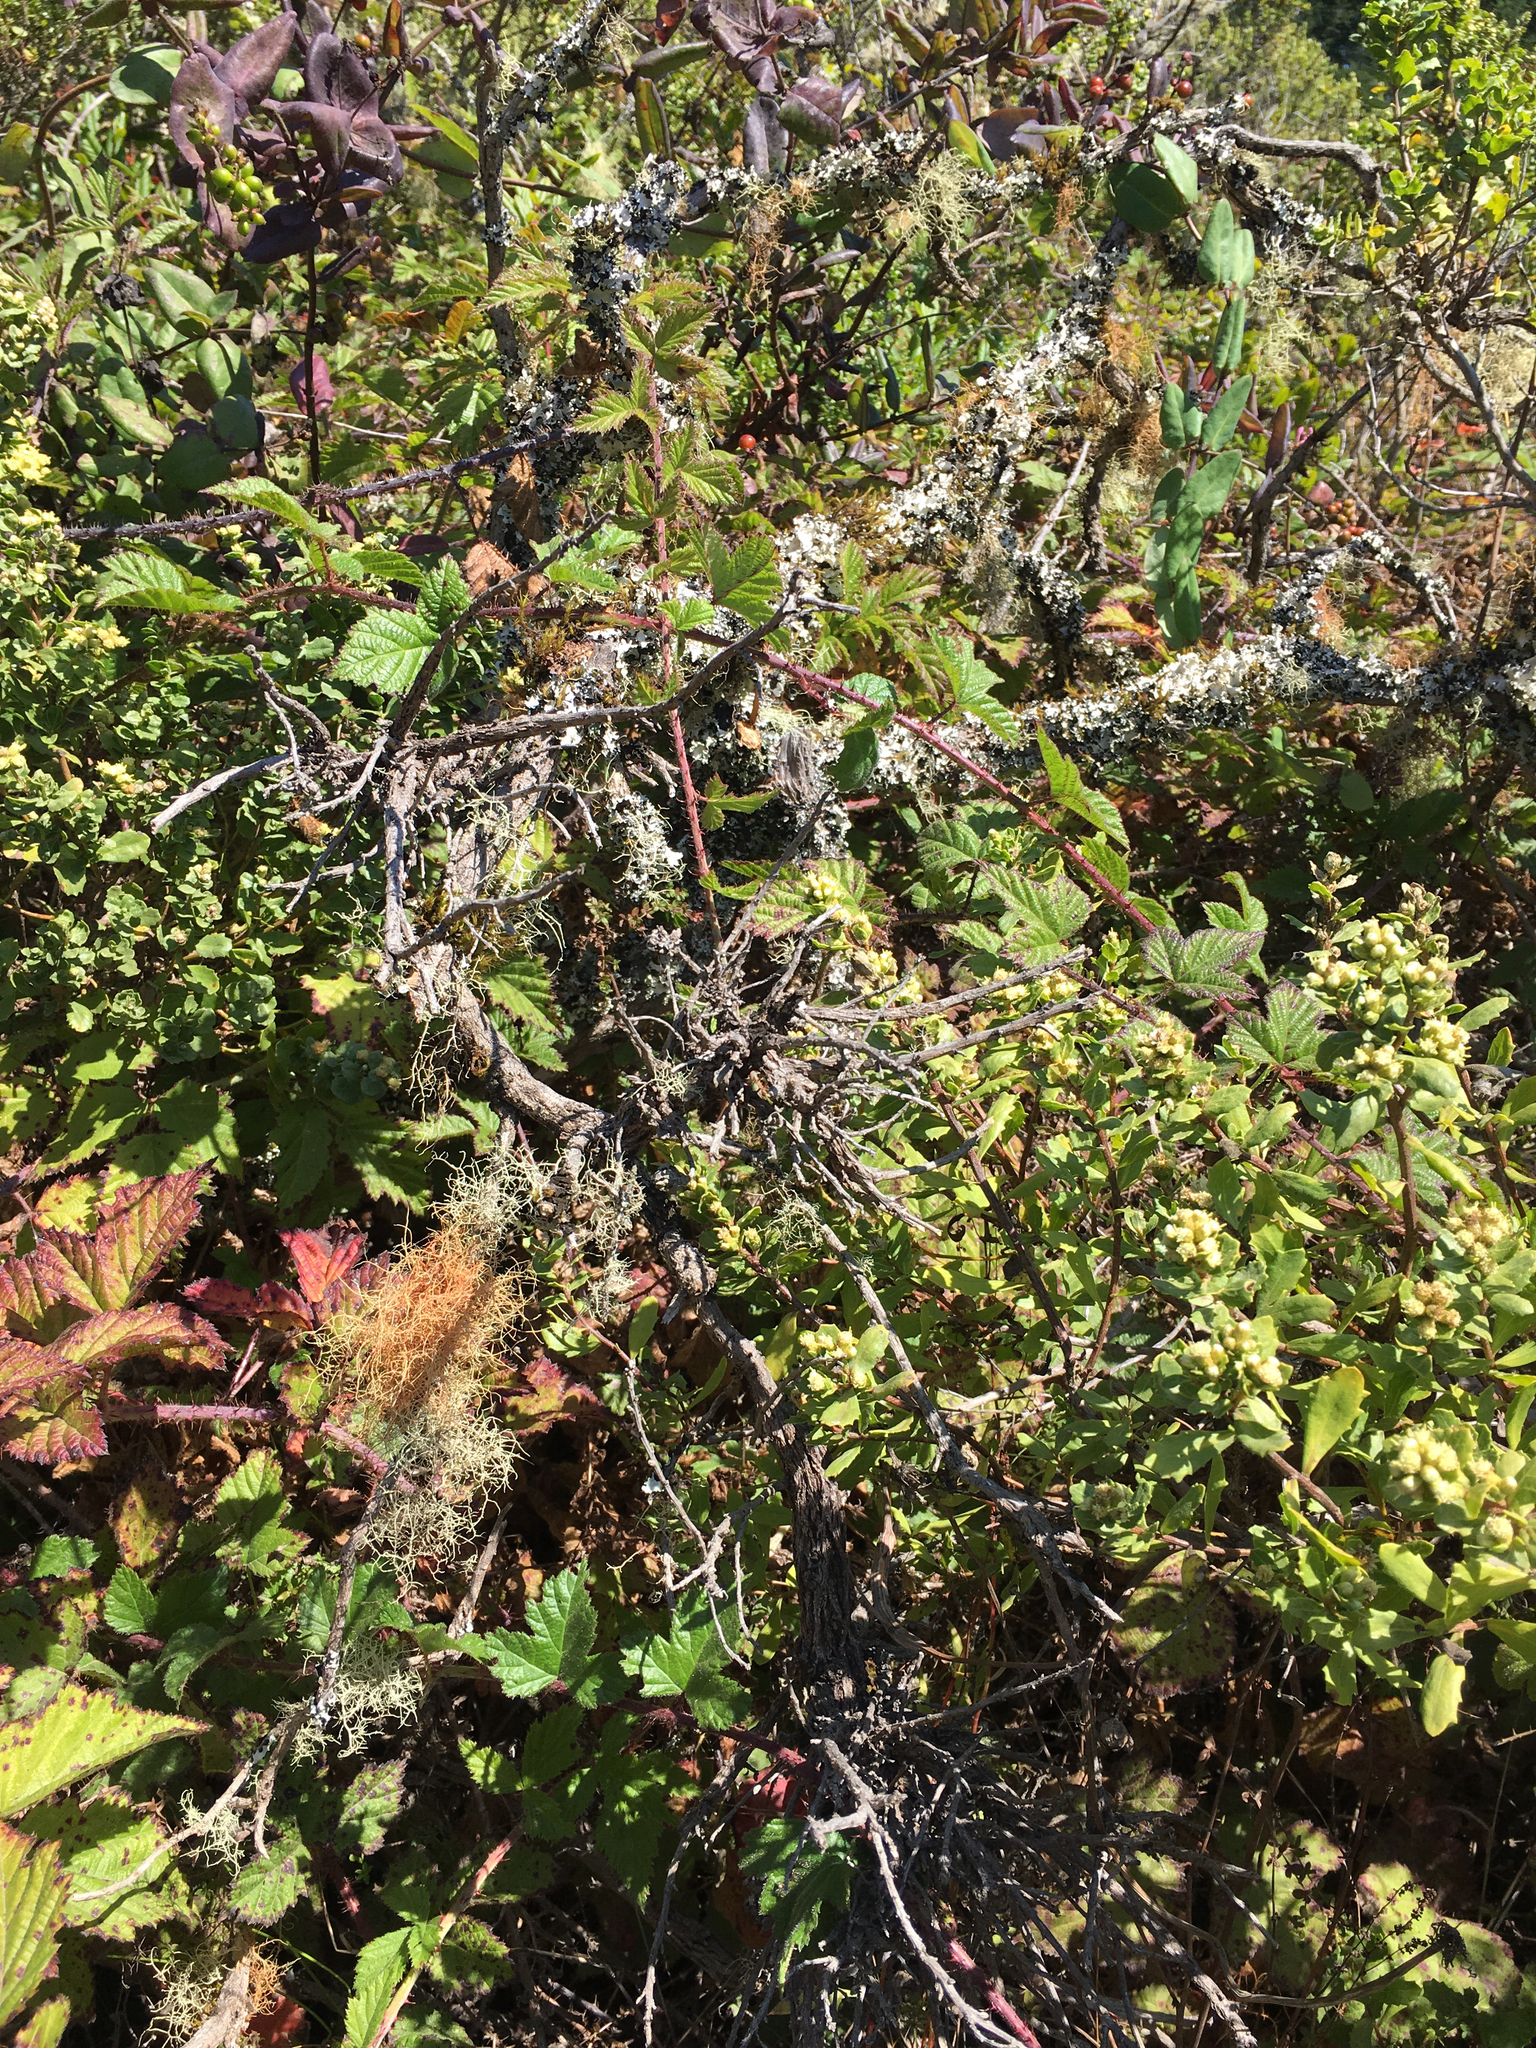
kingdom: Fungi
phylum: Ascomycota
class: Lecanoromycetes
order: Lecanorales
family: Parmeliaceae
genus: Usnea
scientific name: Usnea rubicunda
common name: Red beard lichen
